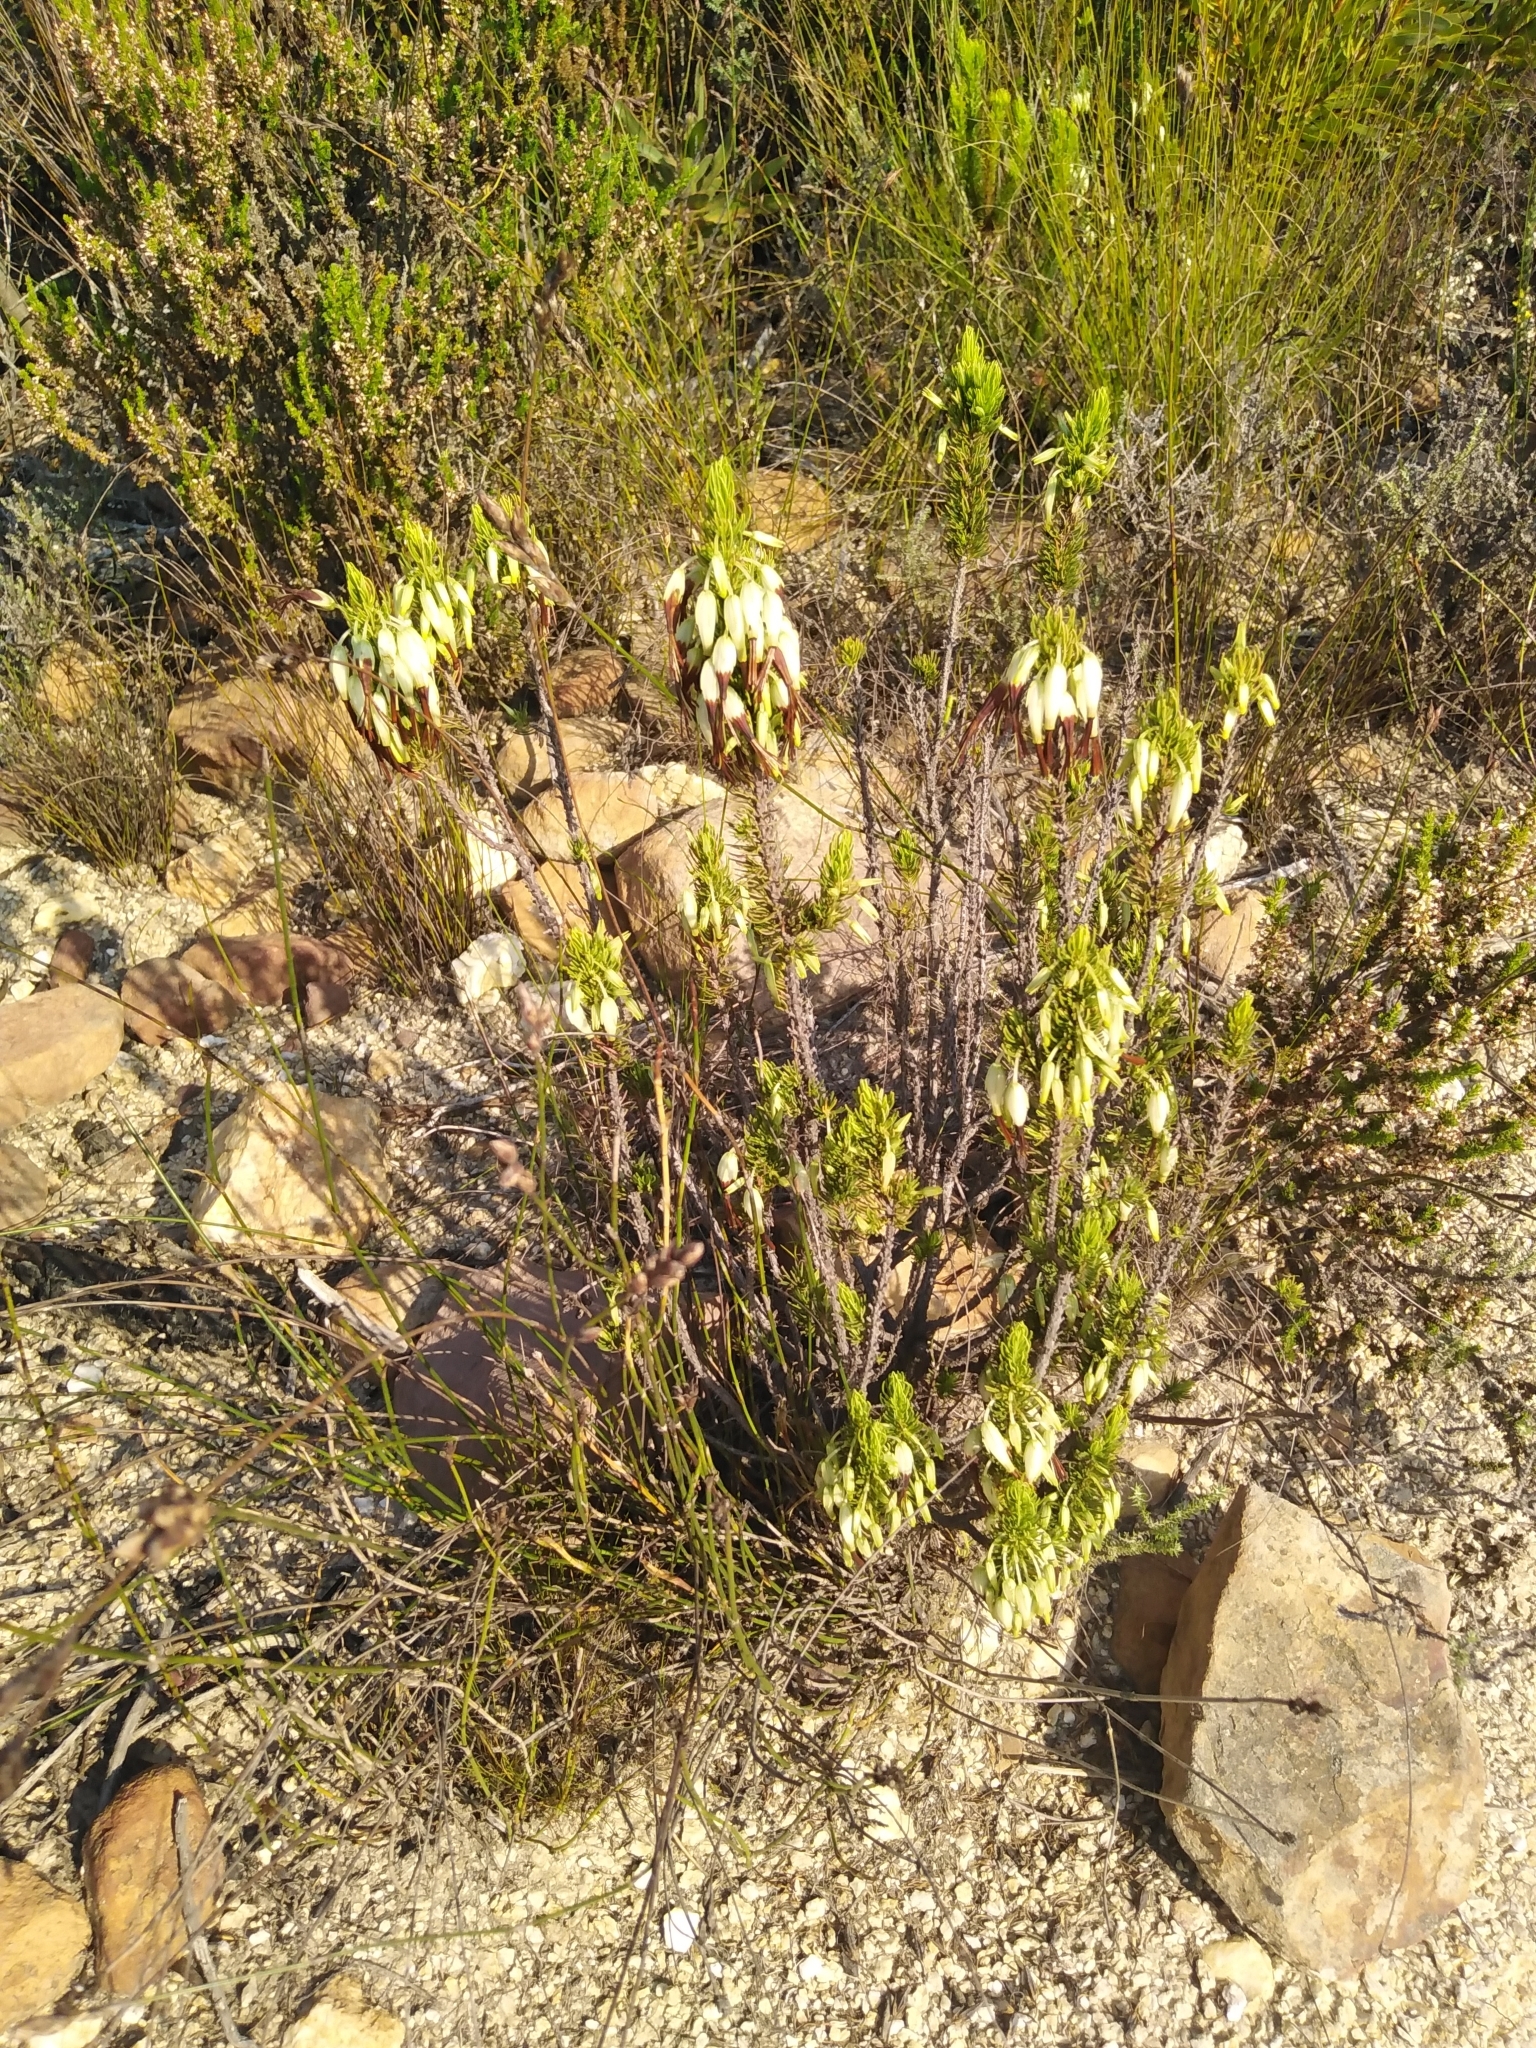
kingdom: Plantae
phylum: Tracheophyta
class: Magnoliopsida
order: Ericales
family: Ericaceae
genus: Erica
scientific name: Erica plukenetii
